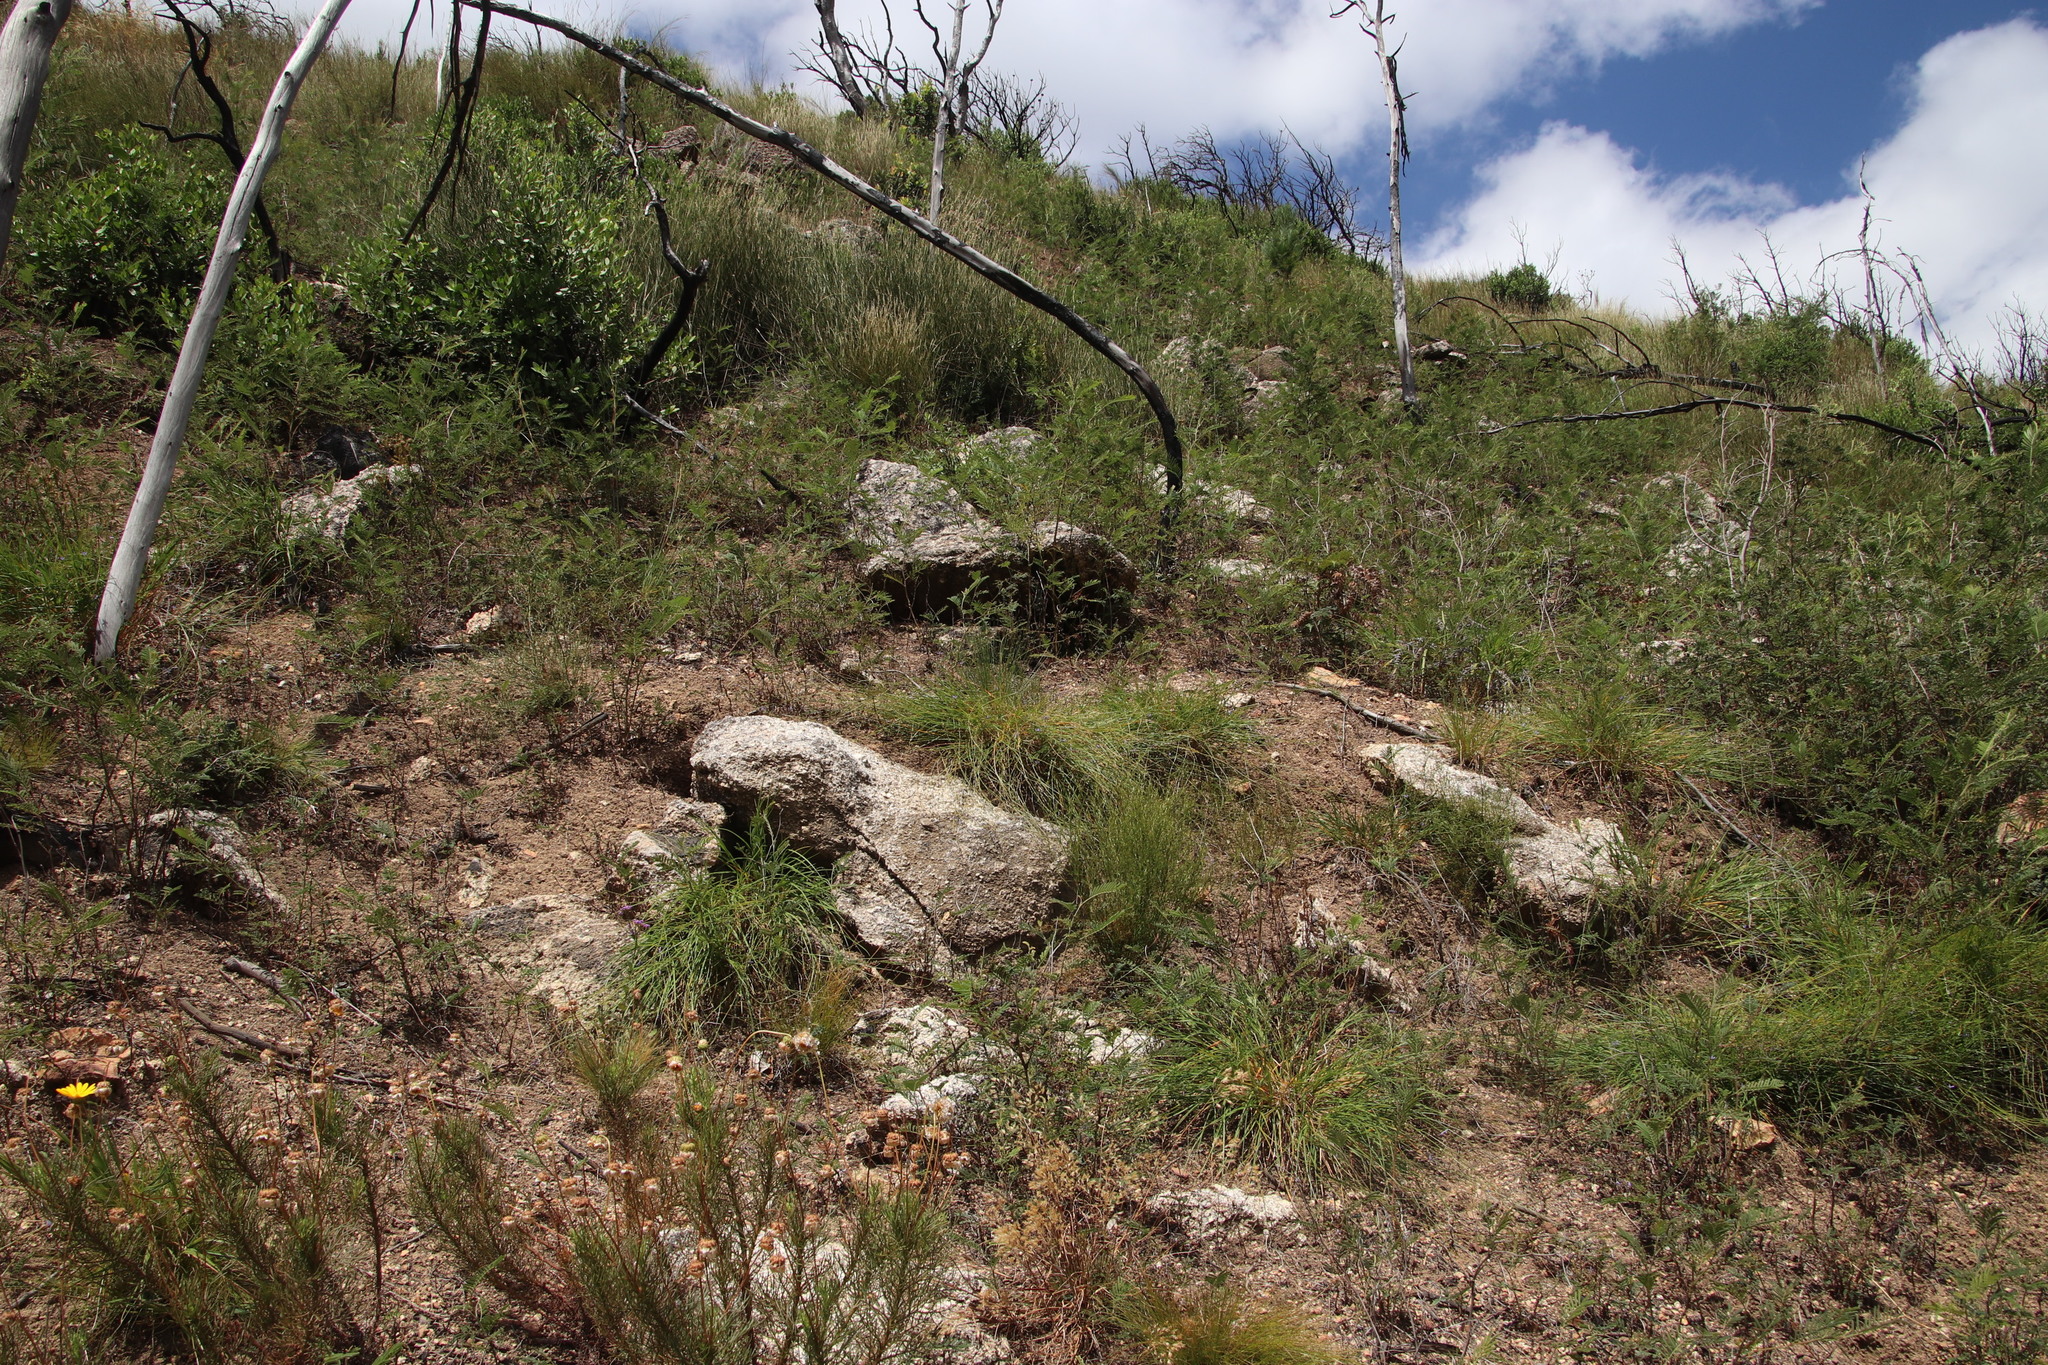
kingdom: Plantae
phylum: Tracheophyta
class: Liliopsida
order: Asparagales
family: Asphodelaceae
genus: Caesia
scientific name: Caesia contorta
